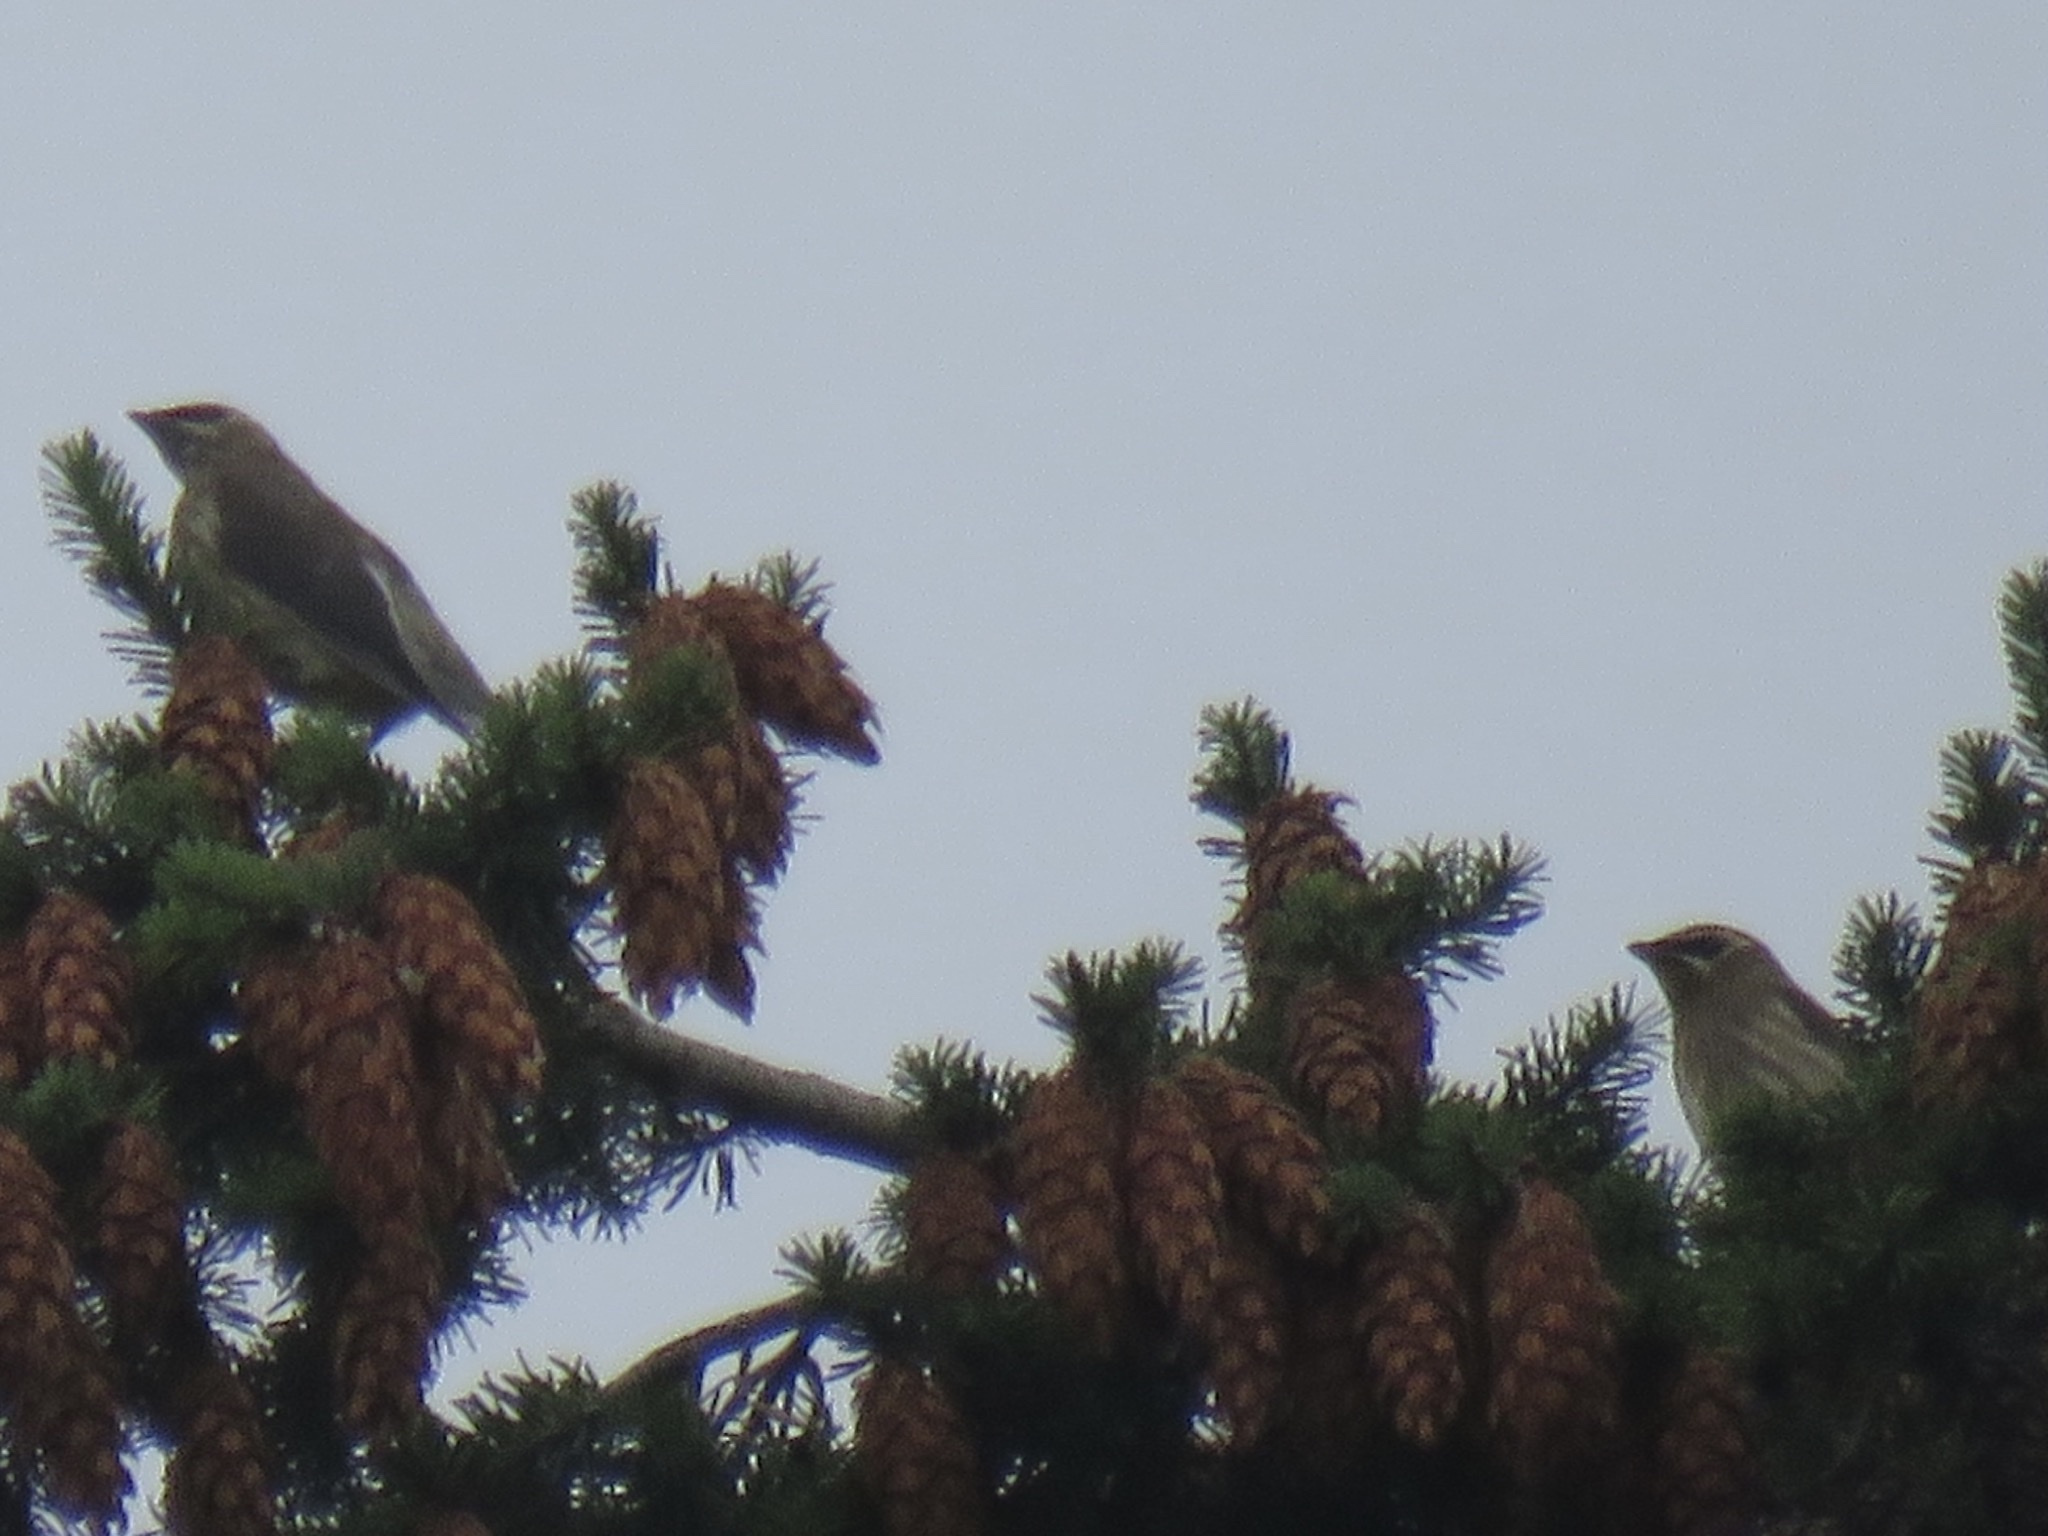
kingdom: Animalia
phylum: Chordata
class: Aves
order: Passeriformes
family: Bombycillidae
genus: Bombycilla
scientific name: Bombycilla cedrorum
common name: Cedar waxwing
